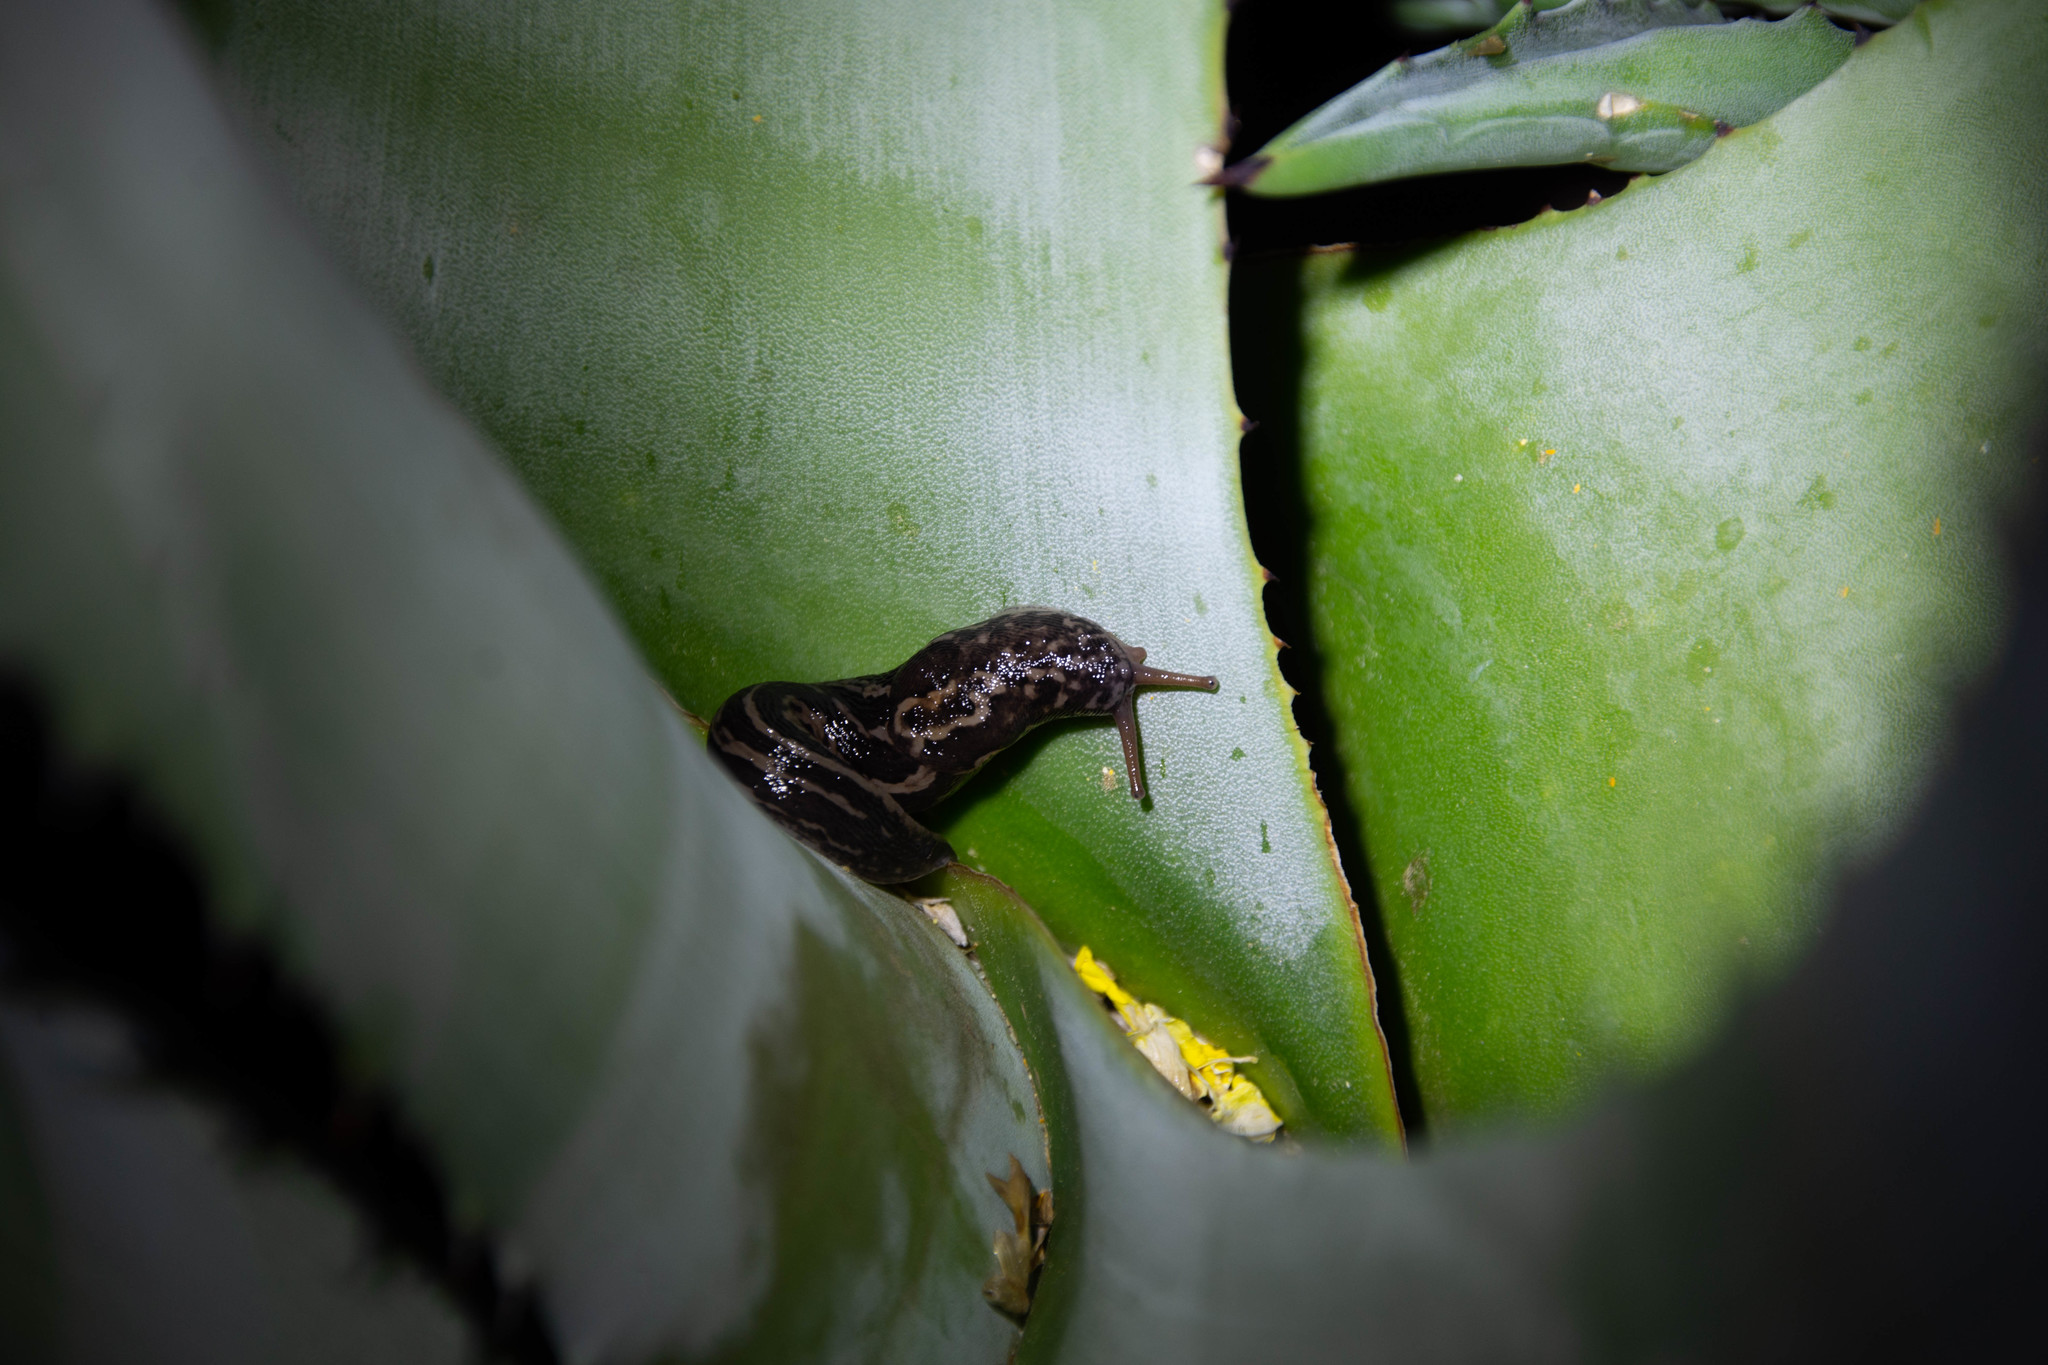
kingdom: Animalia
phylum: Mollusca
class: Gastropoda
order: Stylommatophora
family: Limacidae
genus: Limax
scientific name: Limax maximus
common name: Great grey slug
